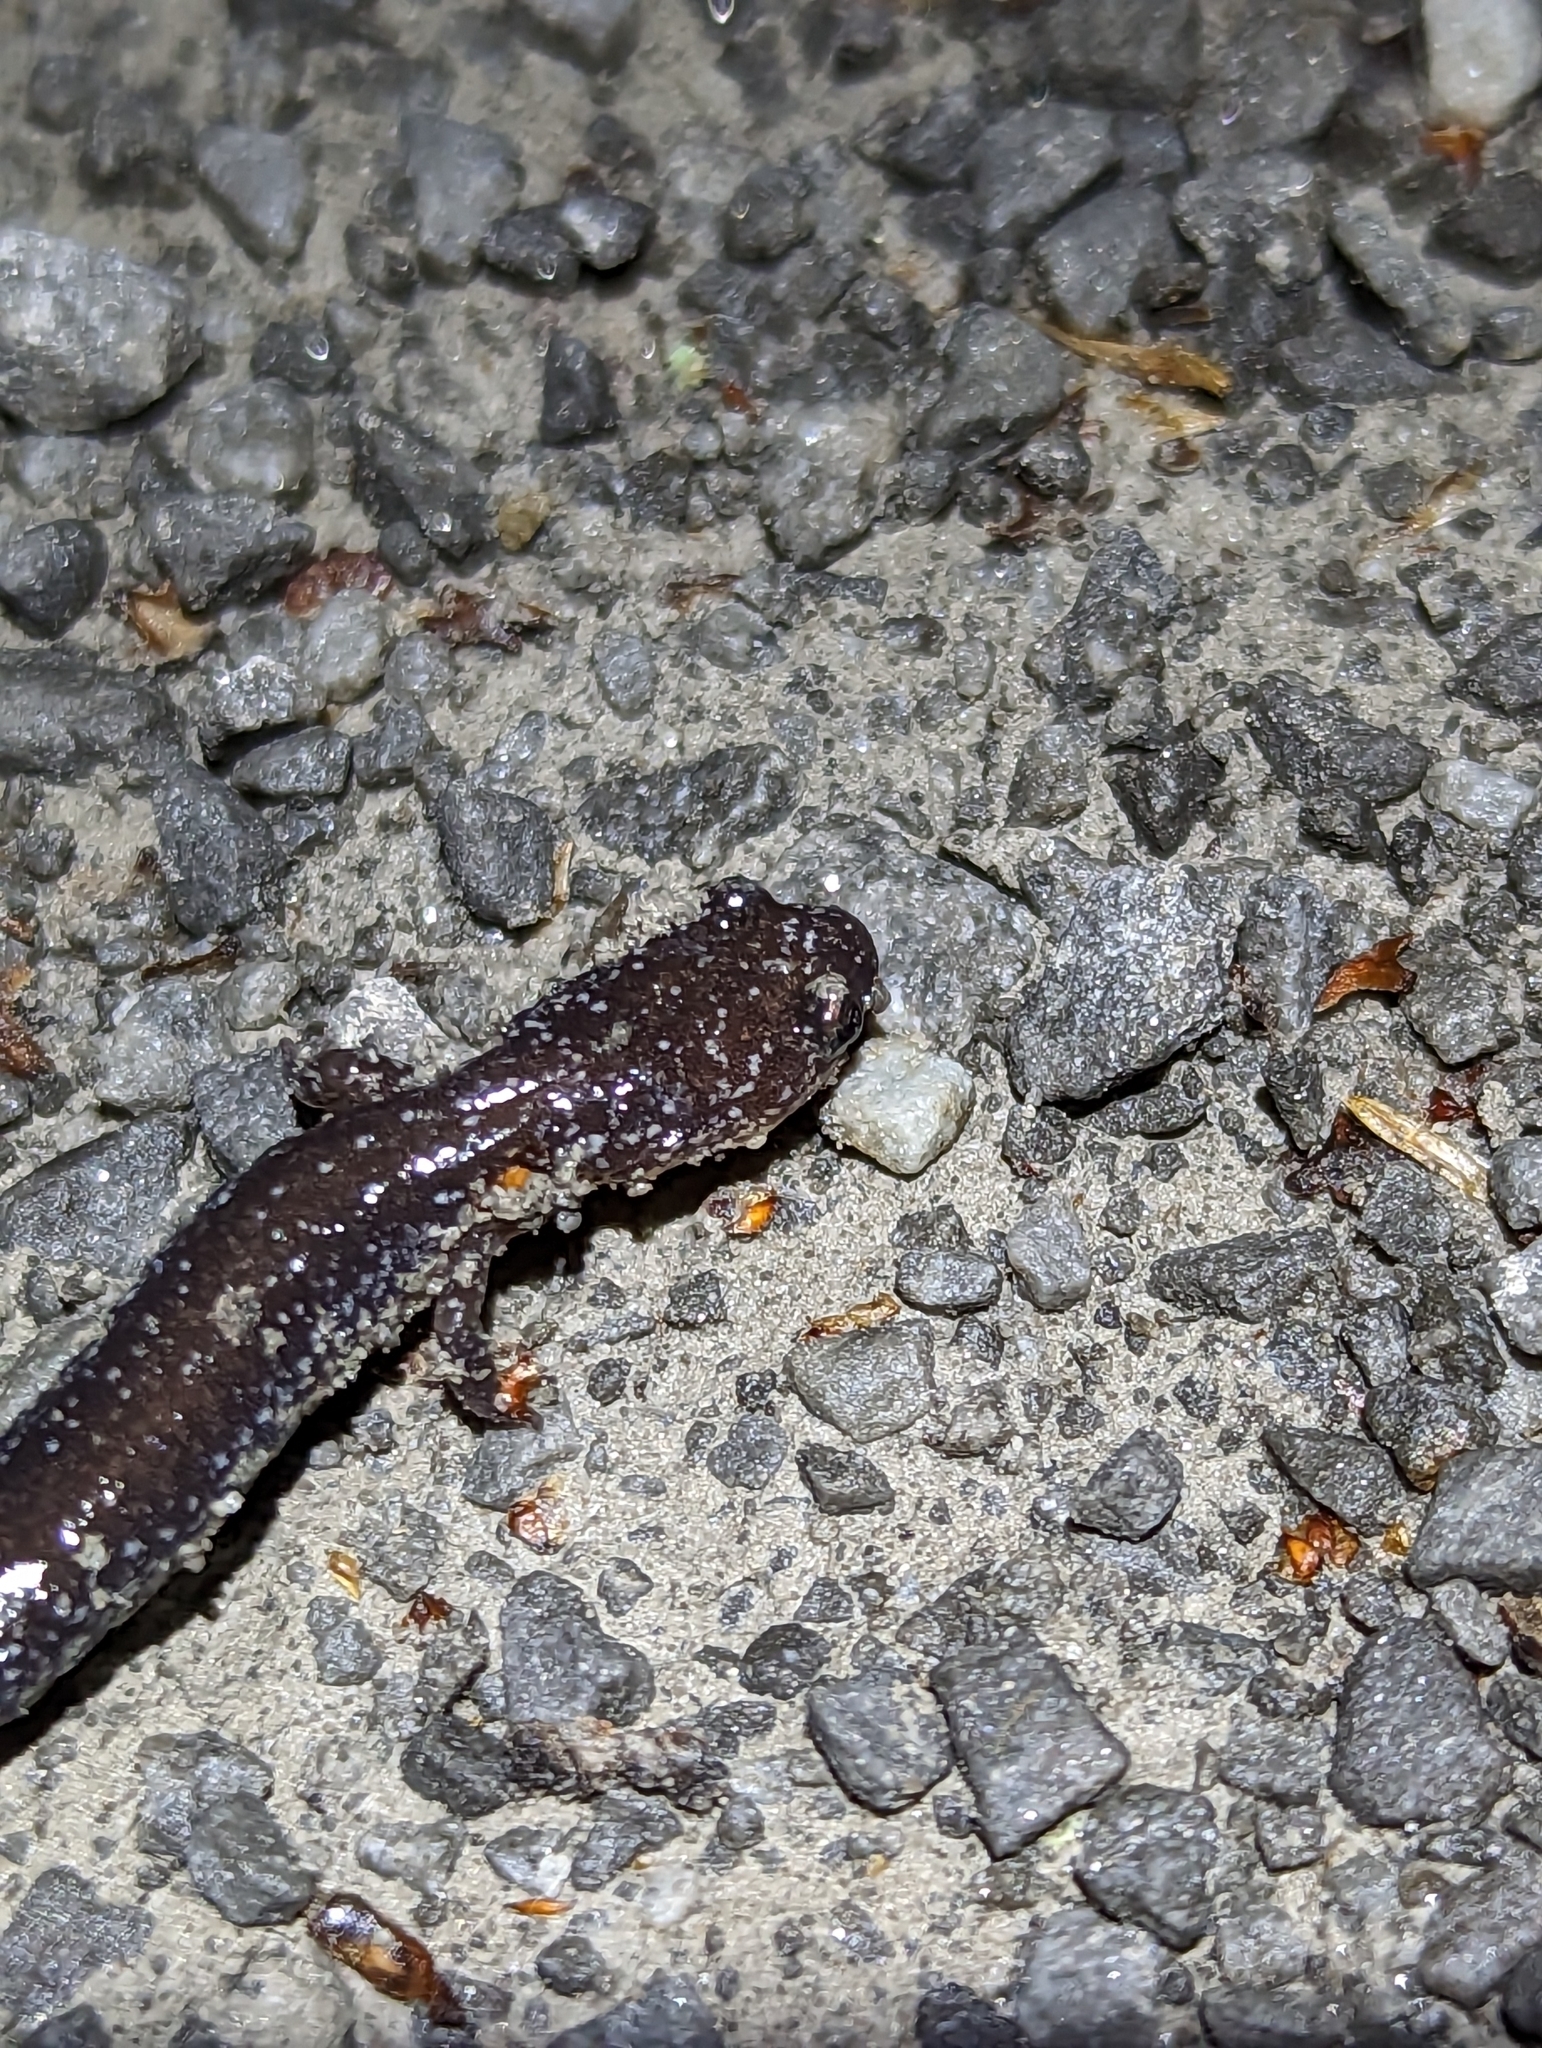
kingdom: Animalia
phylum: Chordata
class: Amphibia
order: Caudata
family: Plethodontidae
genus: Plethodon
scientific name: Plethodon cinereus
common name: Redback salamander
